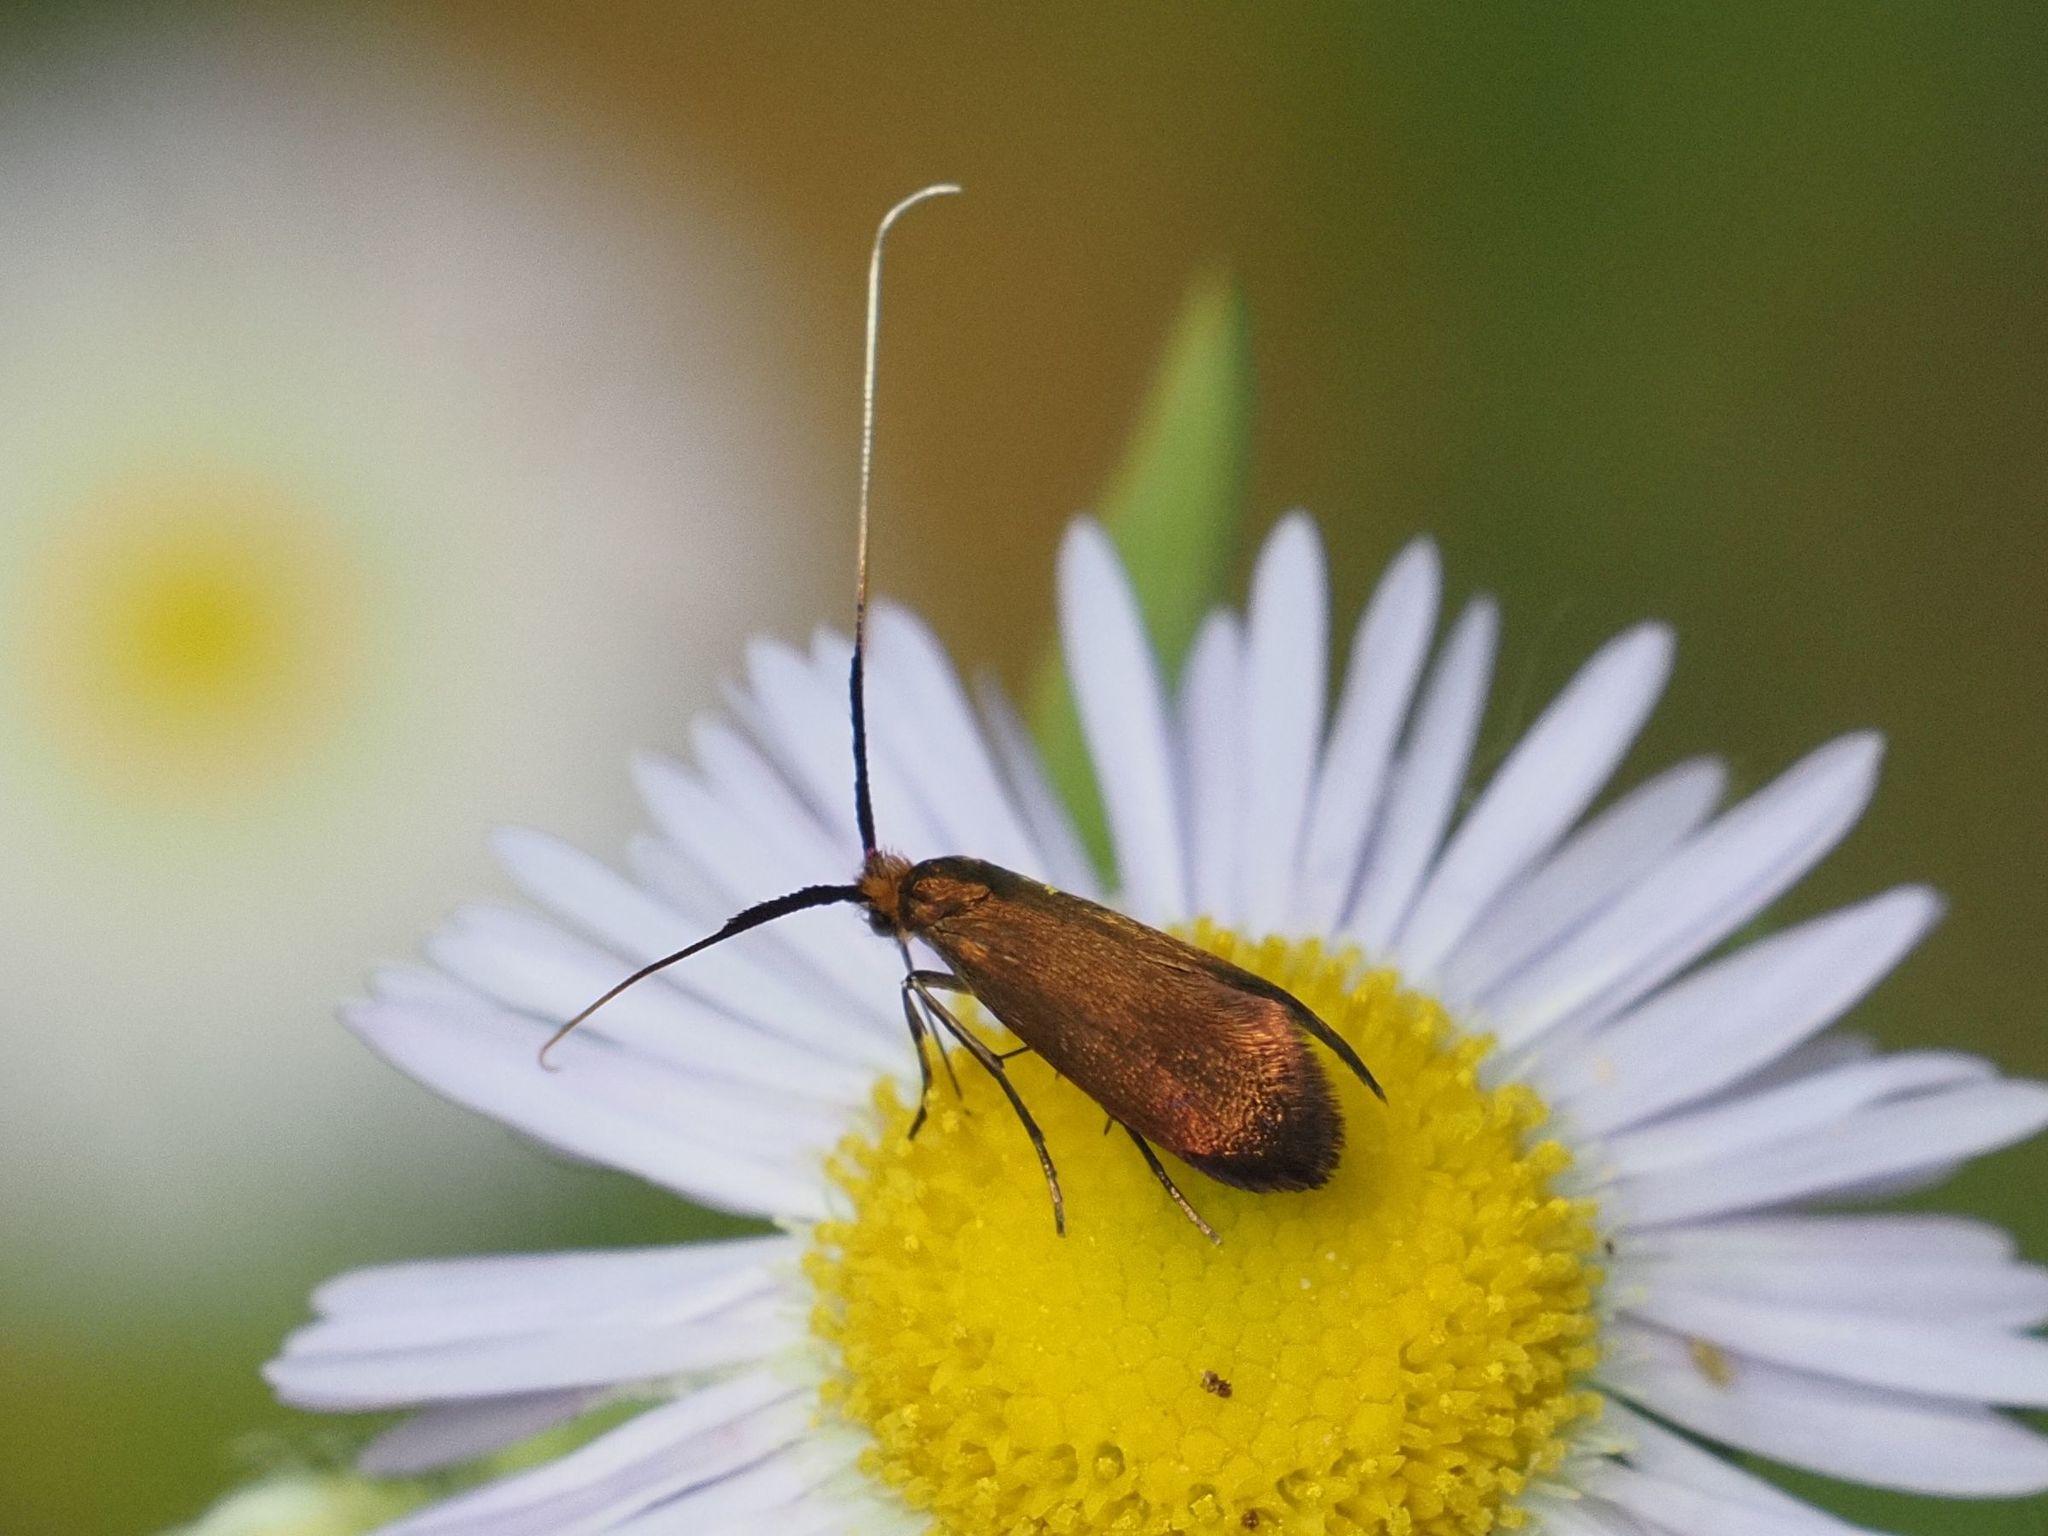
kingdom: Animalia
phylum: Arthropoda
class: Insecta
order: Lepidoptera
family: Adelidae
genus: Adela
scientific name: Adela violella
